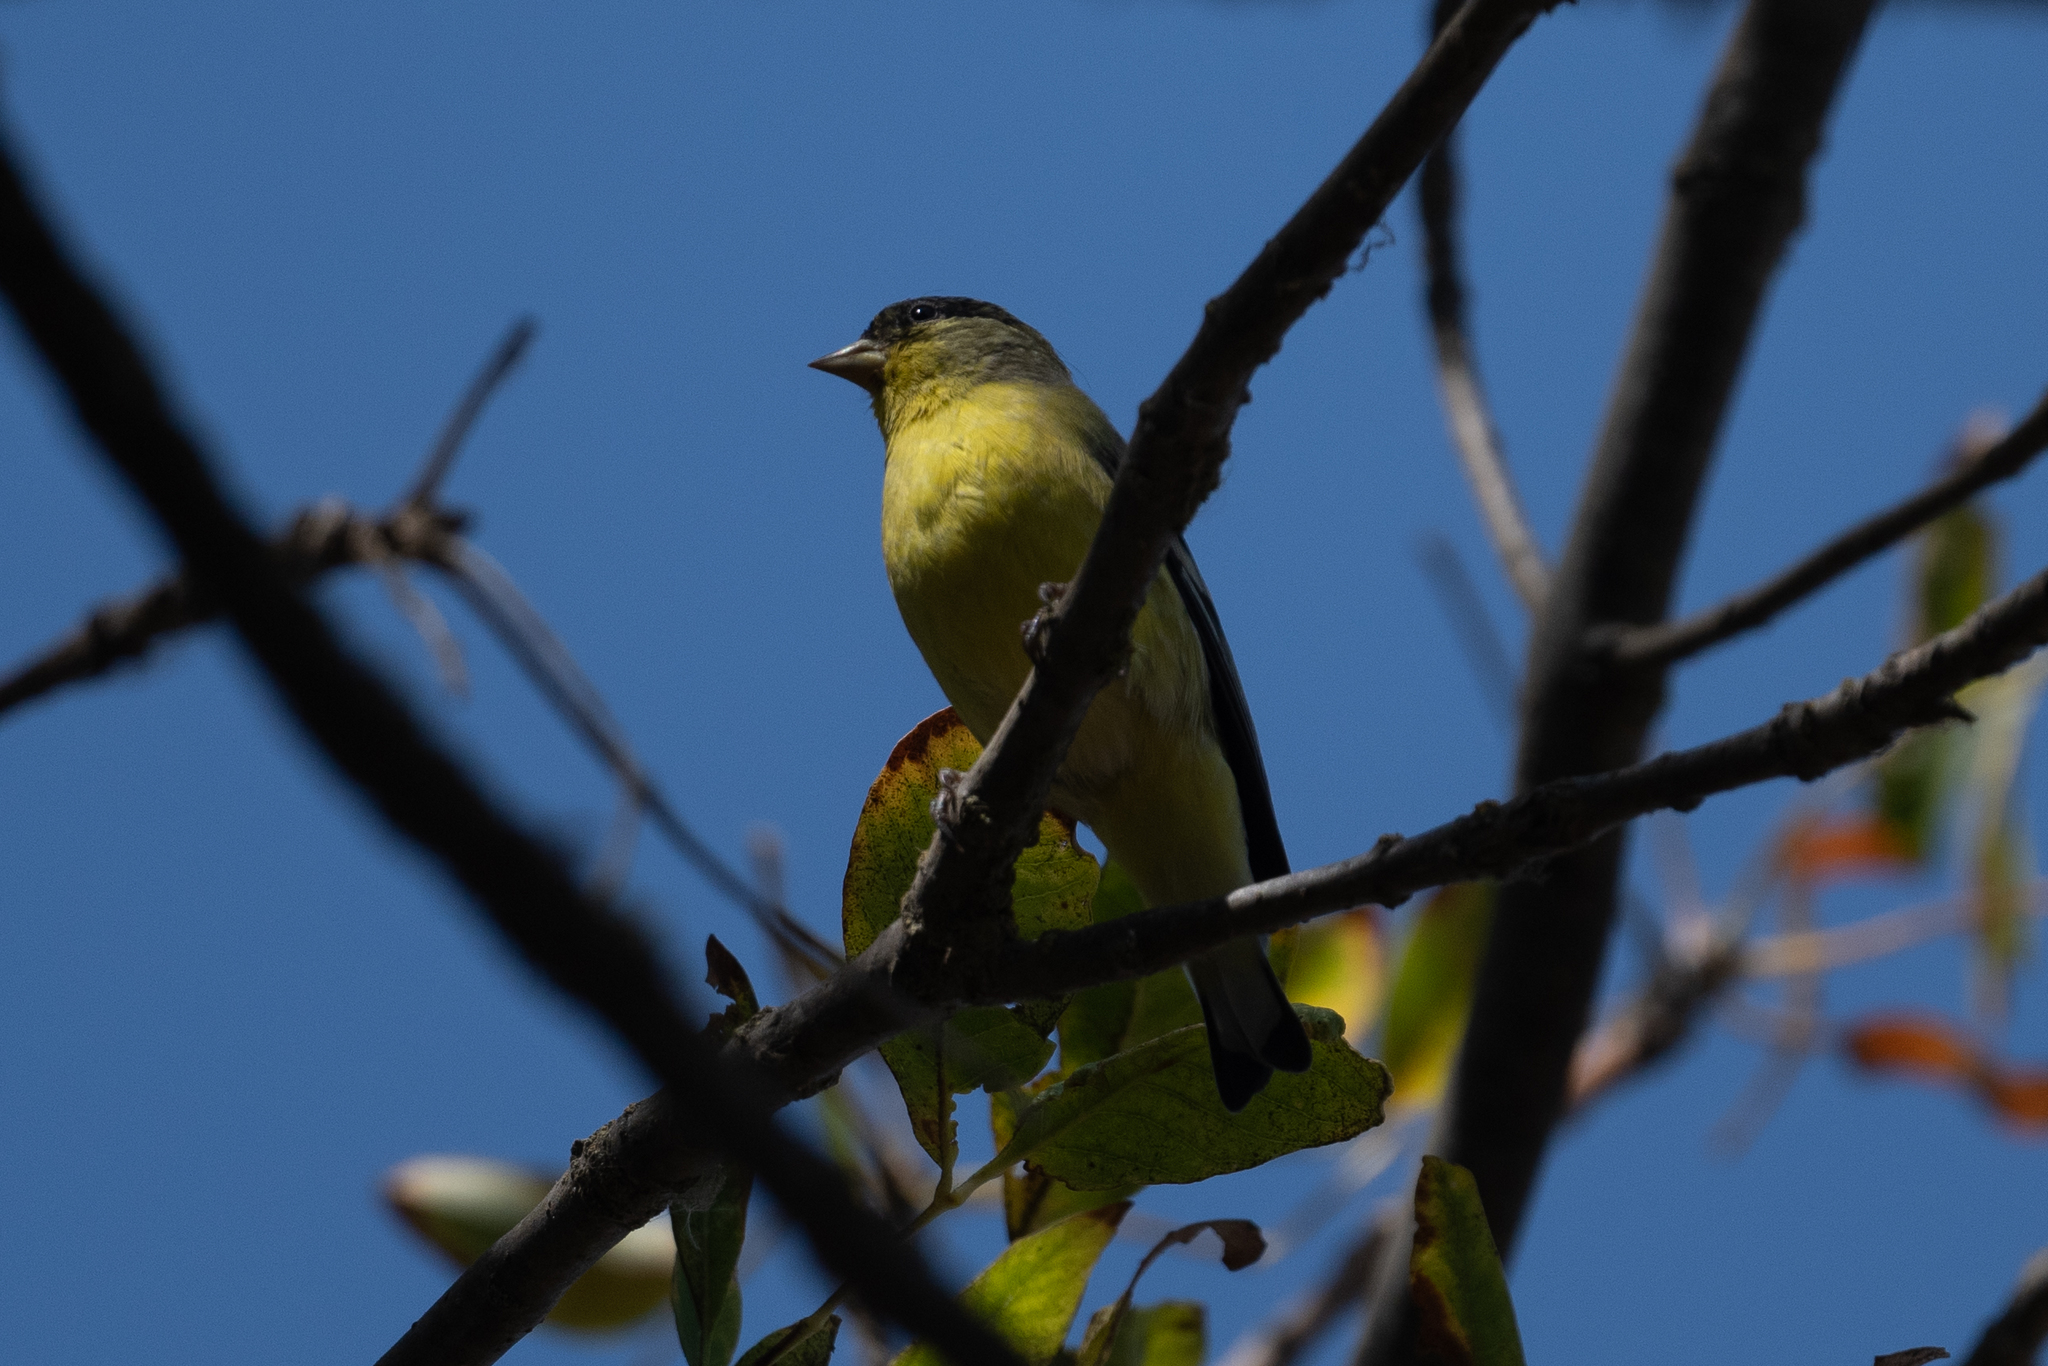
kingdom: Animalia
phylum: Chordata
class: Aves
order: Passeriformes
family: Fringillidae
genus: Spinus
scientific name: Spinus psaltria
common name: Lesser goldfinch
